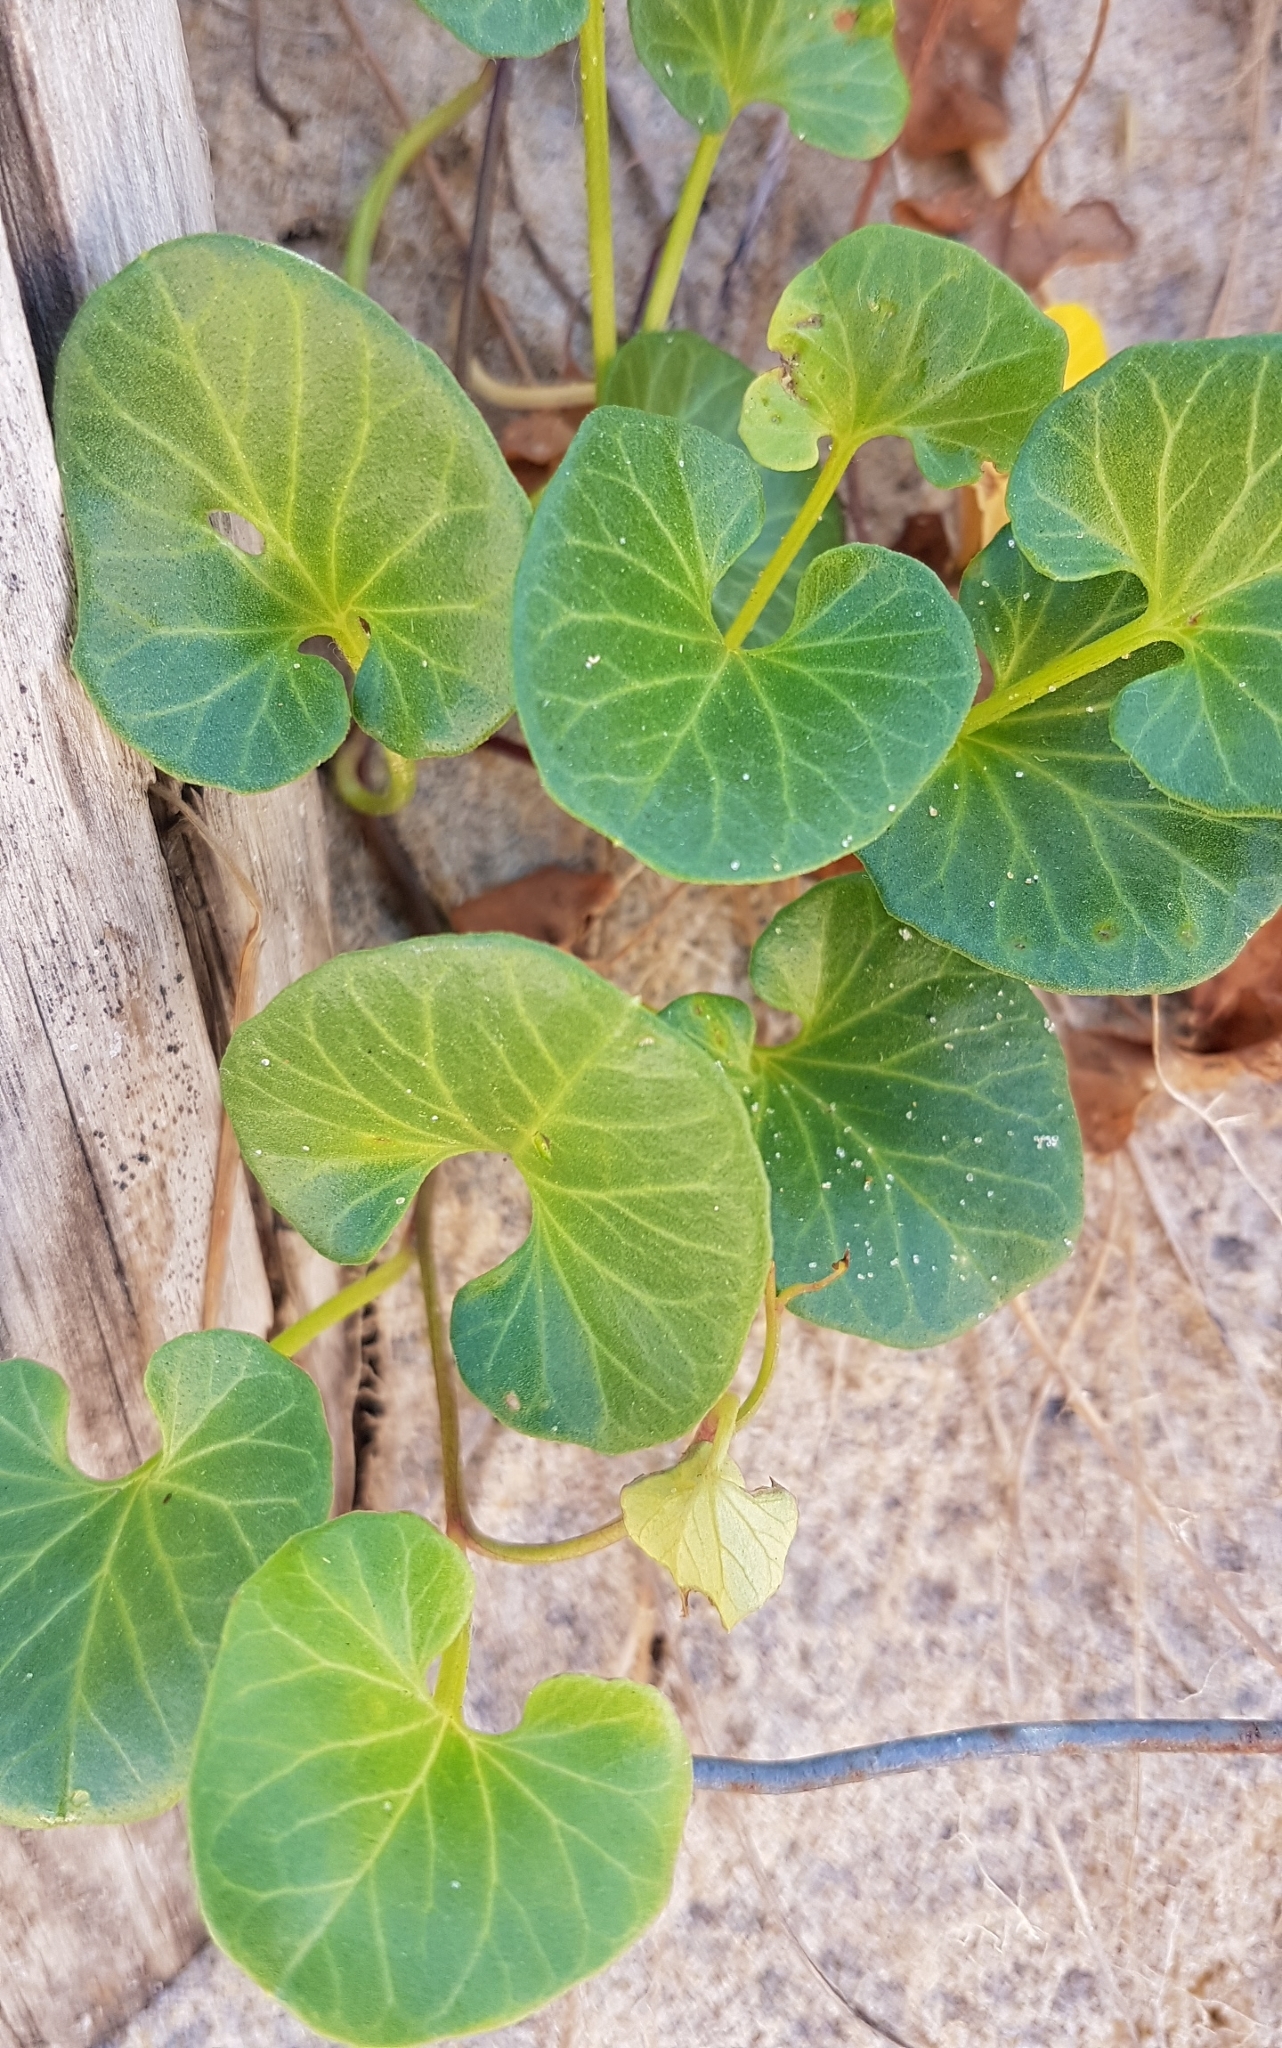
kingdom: Plantae
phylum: Tracheophyta
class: Magnoliopsida
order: Solanales
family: Convolvulaceae
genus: Calystegia
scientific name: Calystegia soldanella
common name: Sea bindweed
